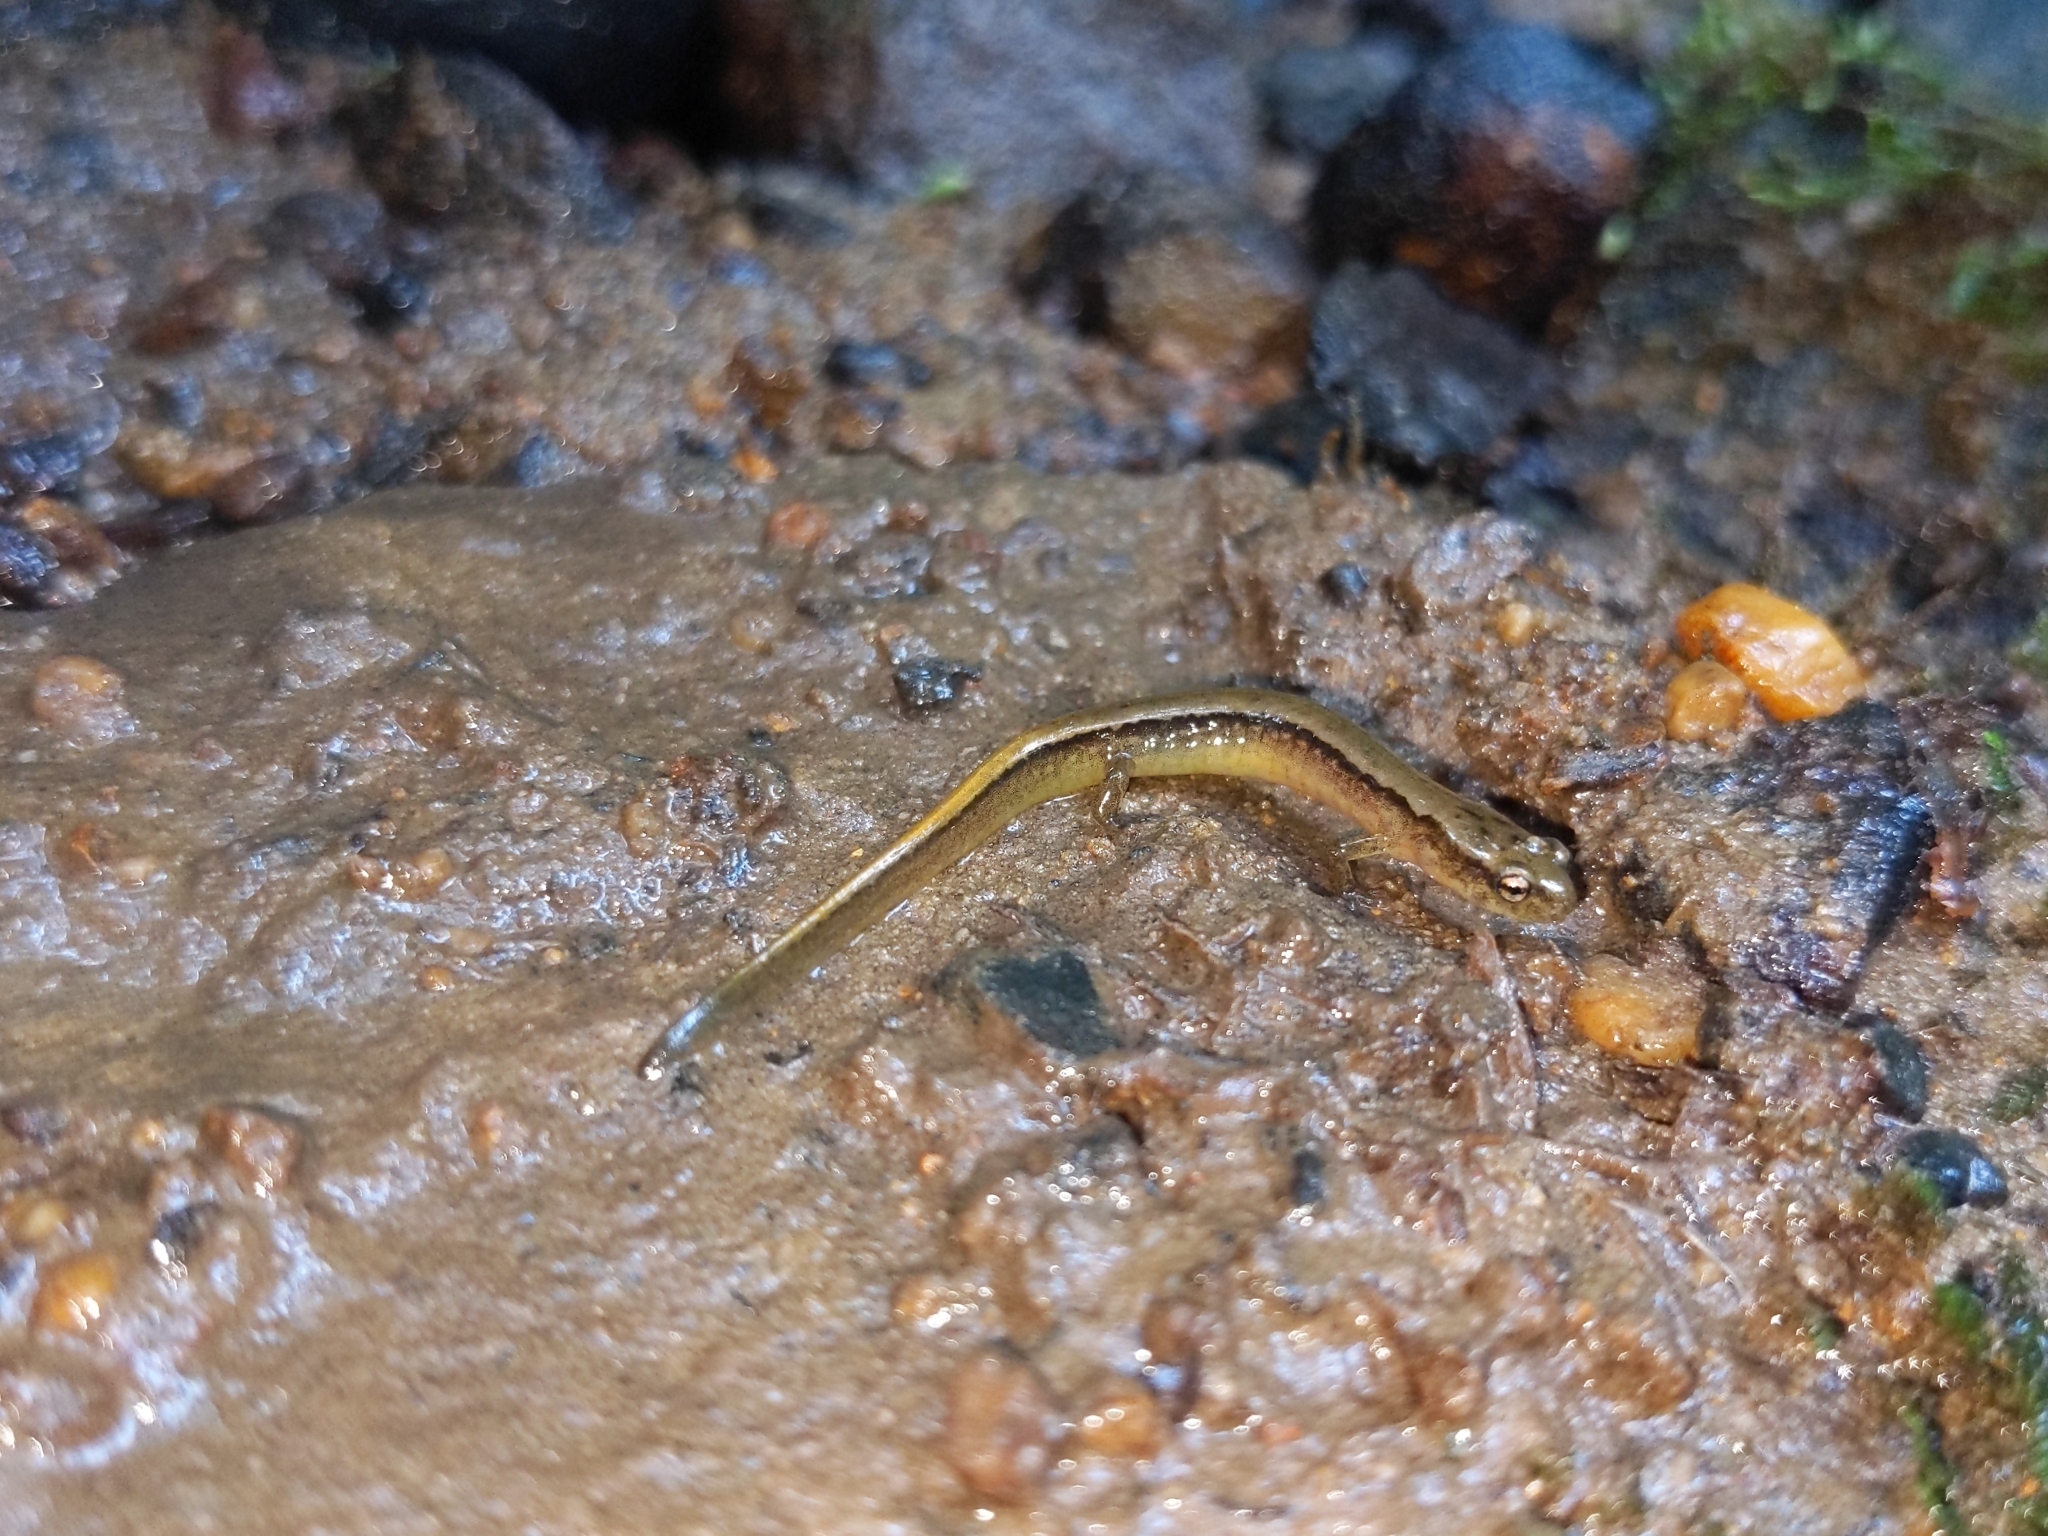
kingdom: Animalia
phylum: Chordata
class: Amphibia
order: Caudata
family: Plethodontidae
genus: Eurycea
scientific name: Eurycea bislineata
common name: Northern two-lined salamander
